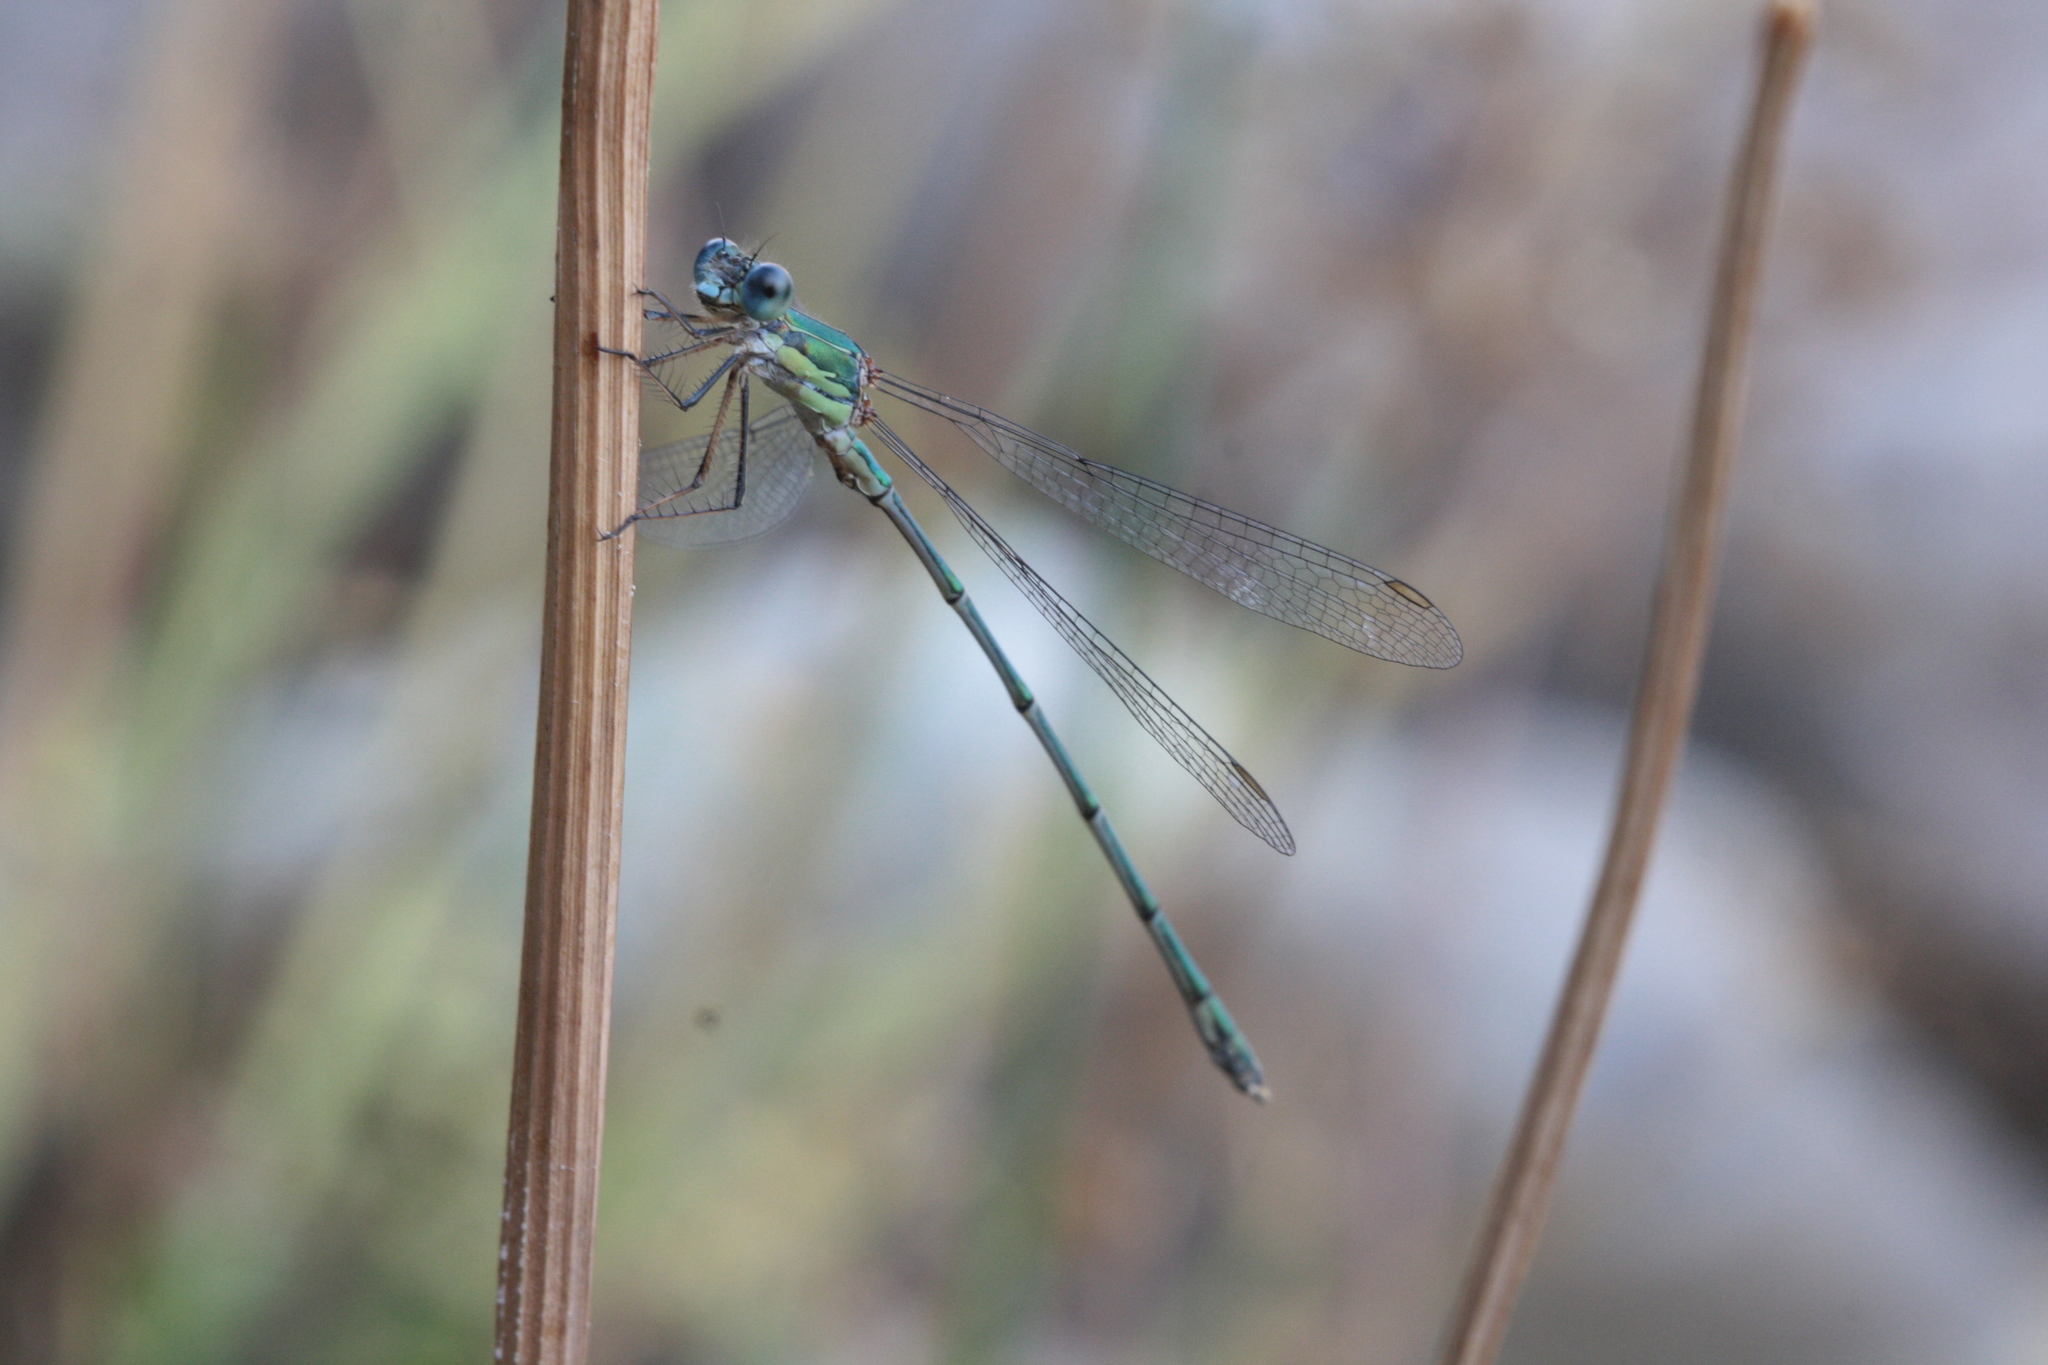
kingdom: Animalia
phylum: Arthropoda
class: Insecta
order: Odonata
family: Lestidae
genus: Chalcolestes
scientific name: Chalcolestes viridis
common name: Green emerald damselfly
